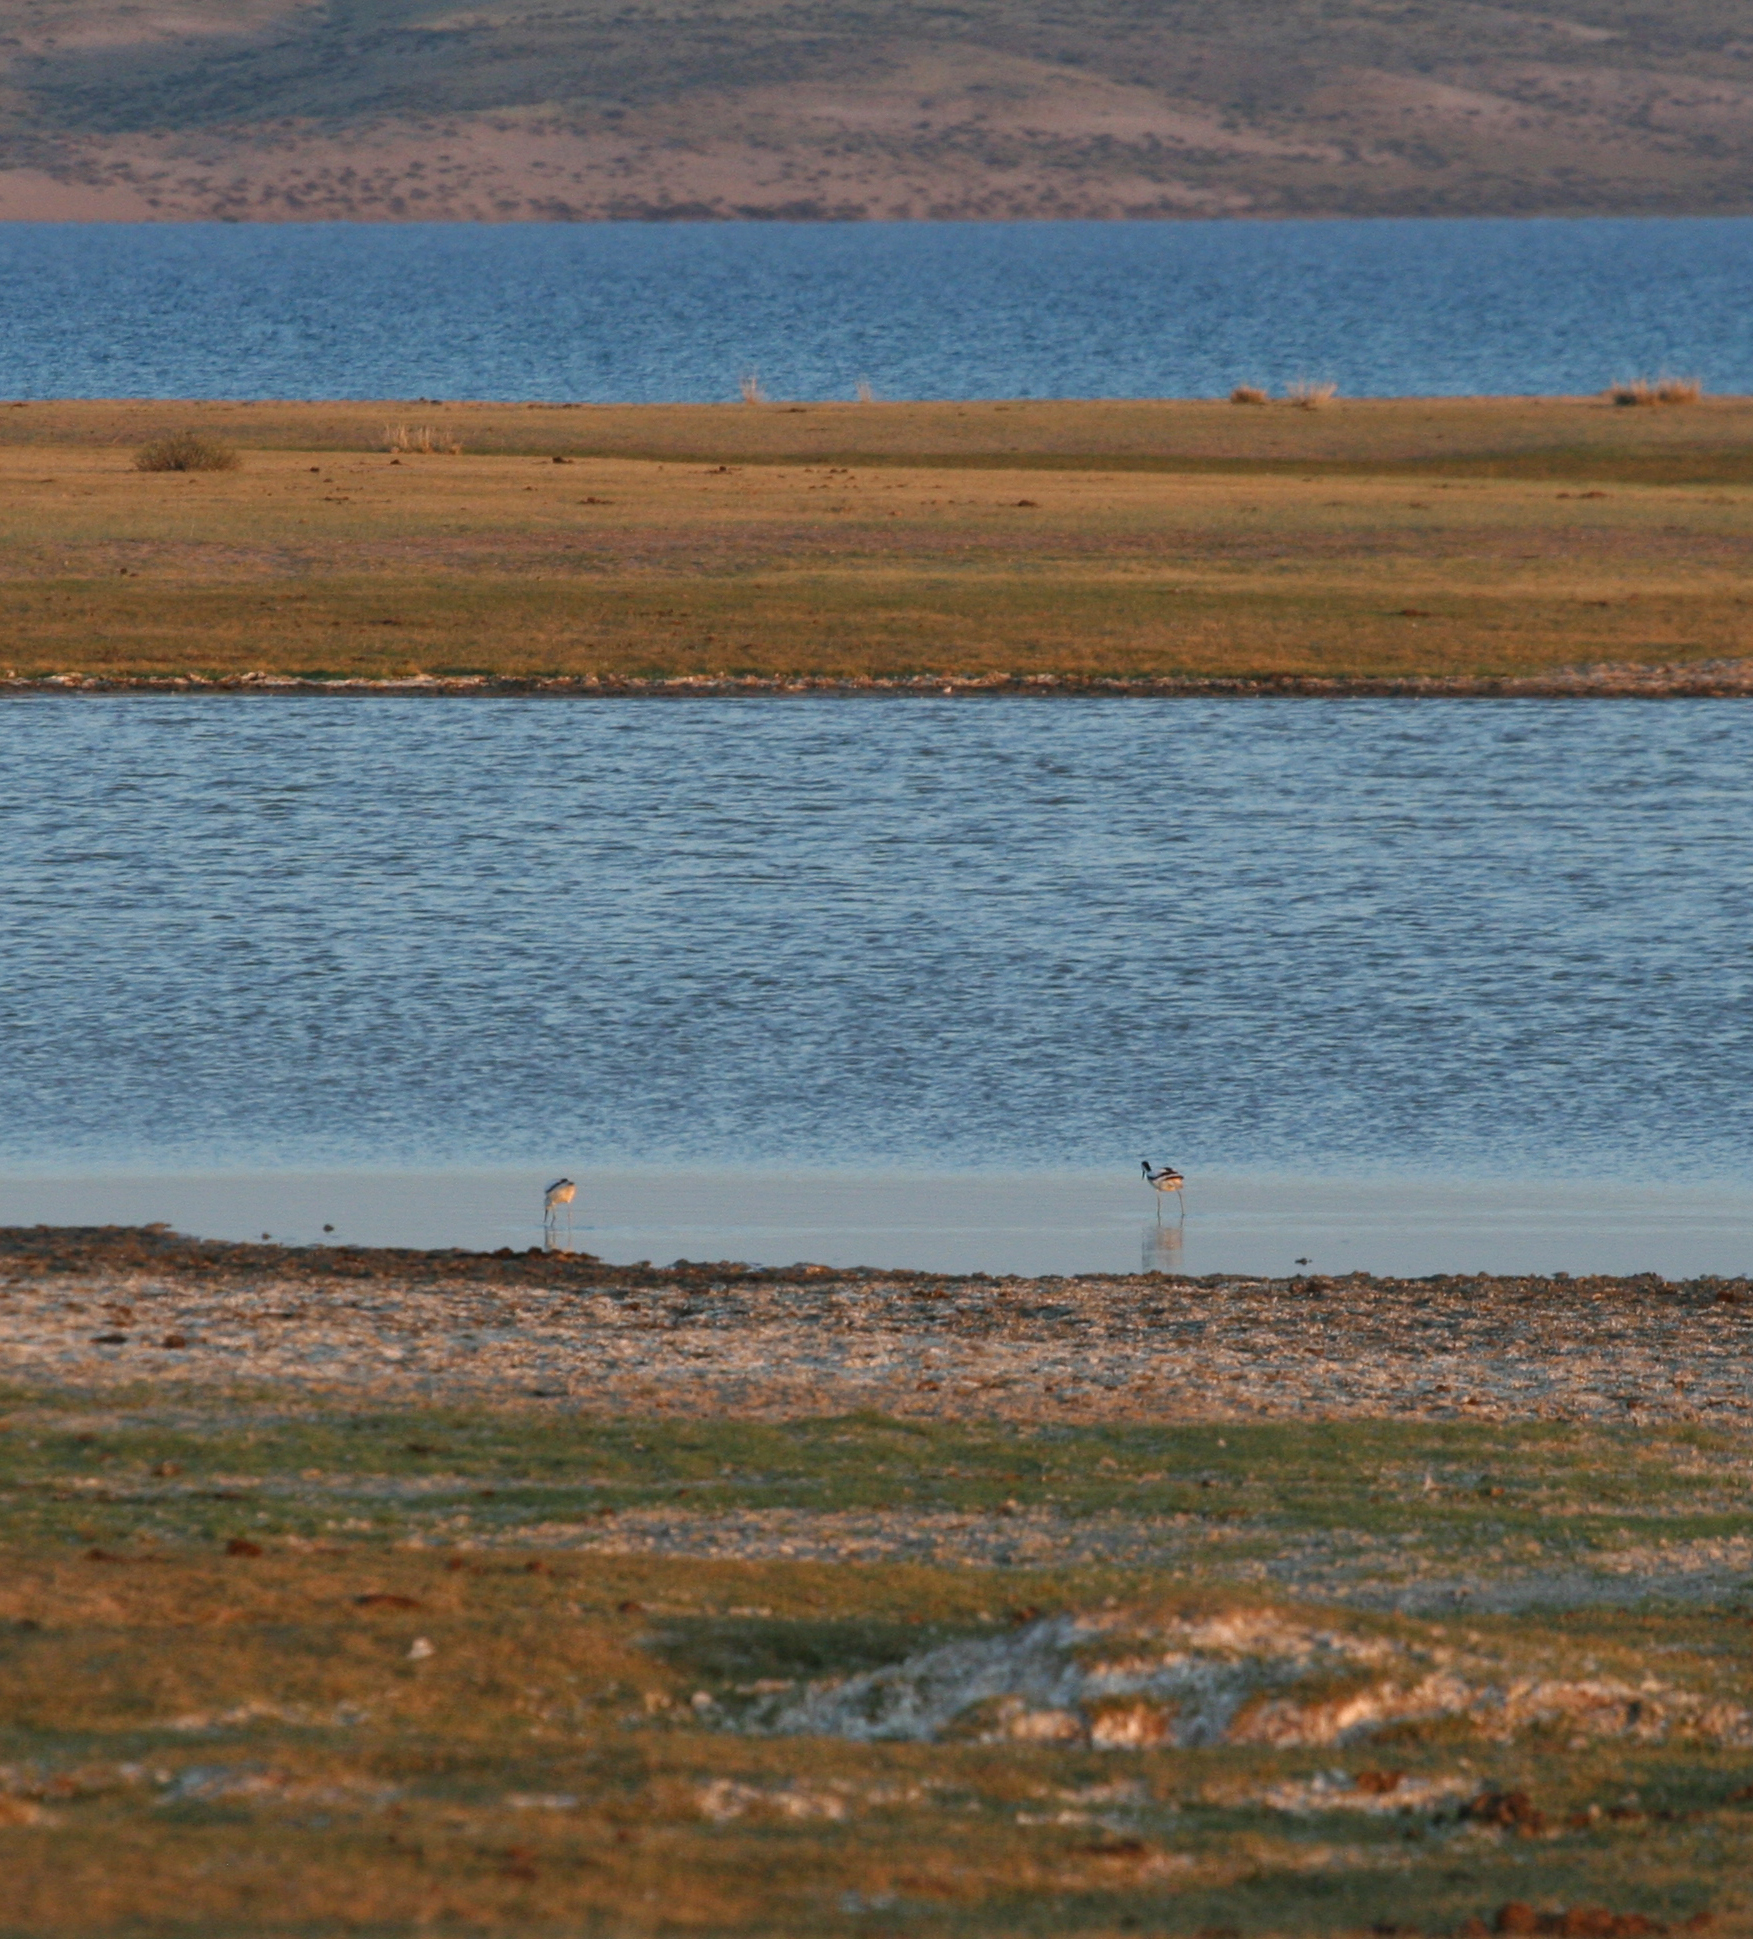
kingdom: Animalia
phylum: Chordata
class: Aves
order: Charadriiformes
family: Recurvirostridae
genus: Recurvirostra
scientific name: Recurvirostra avosetta
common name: Pied avocet
